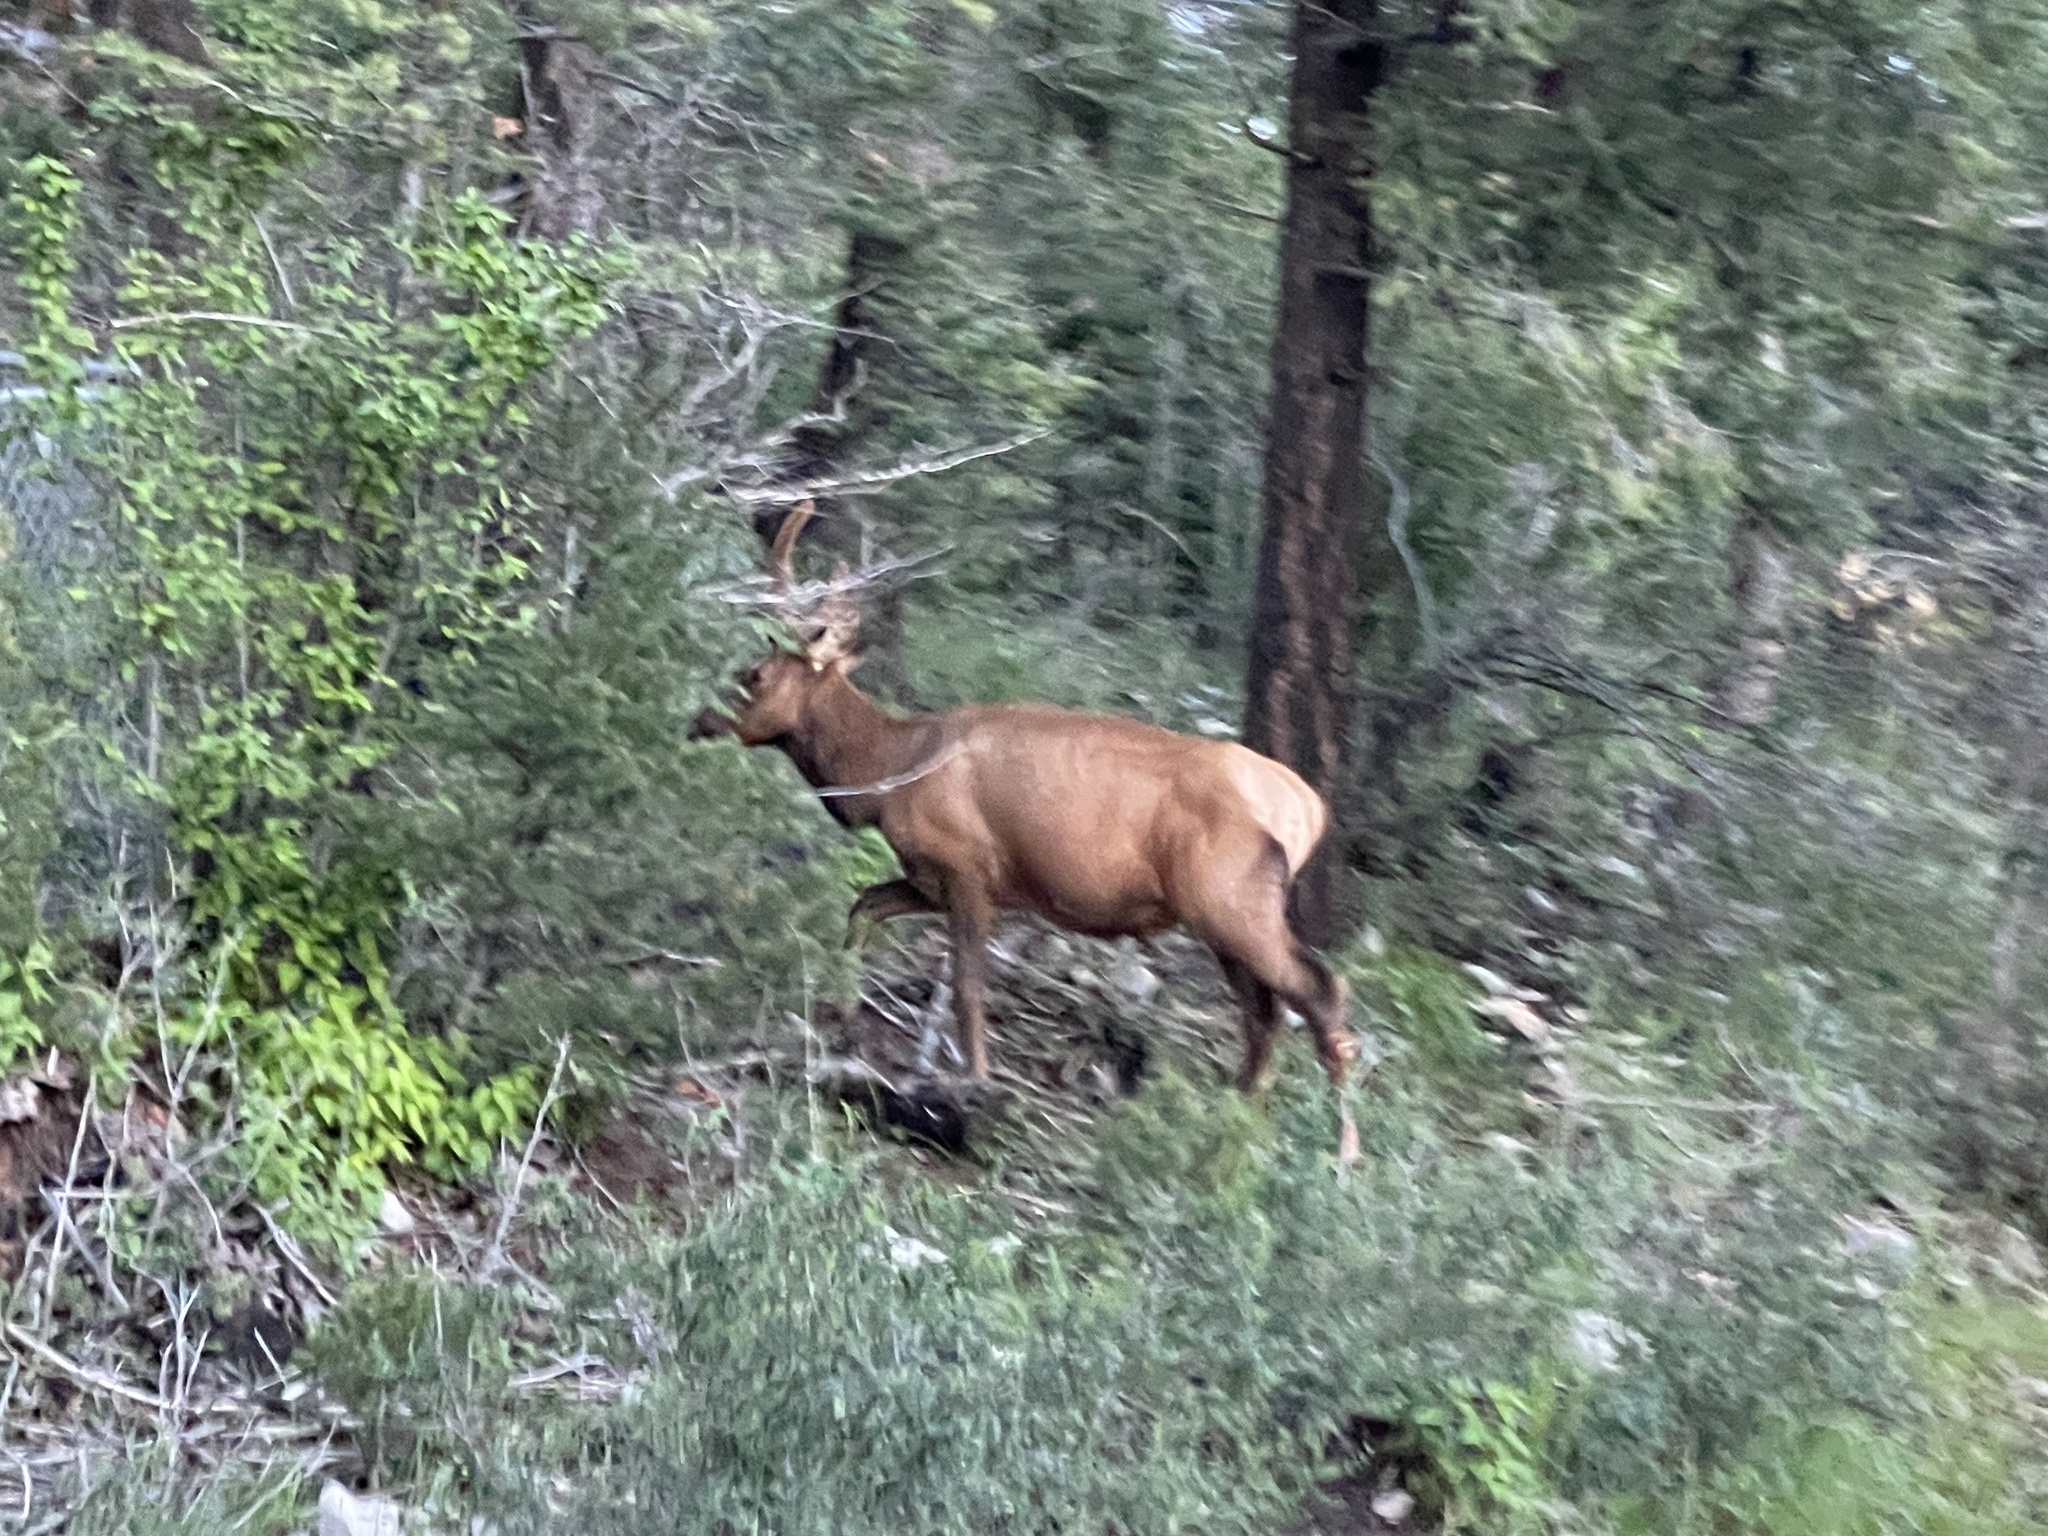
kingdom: Animalia
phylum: Chordata
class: Mammalia
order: Artiodactyla
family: Cervidae
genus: Cervus
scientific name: Cervus elaphus
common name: Red deer
